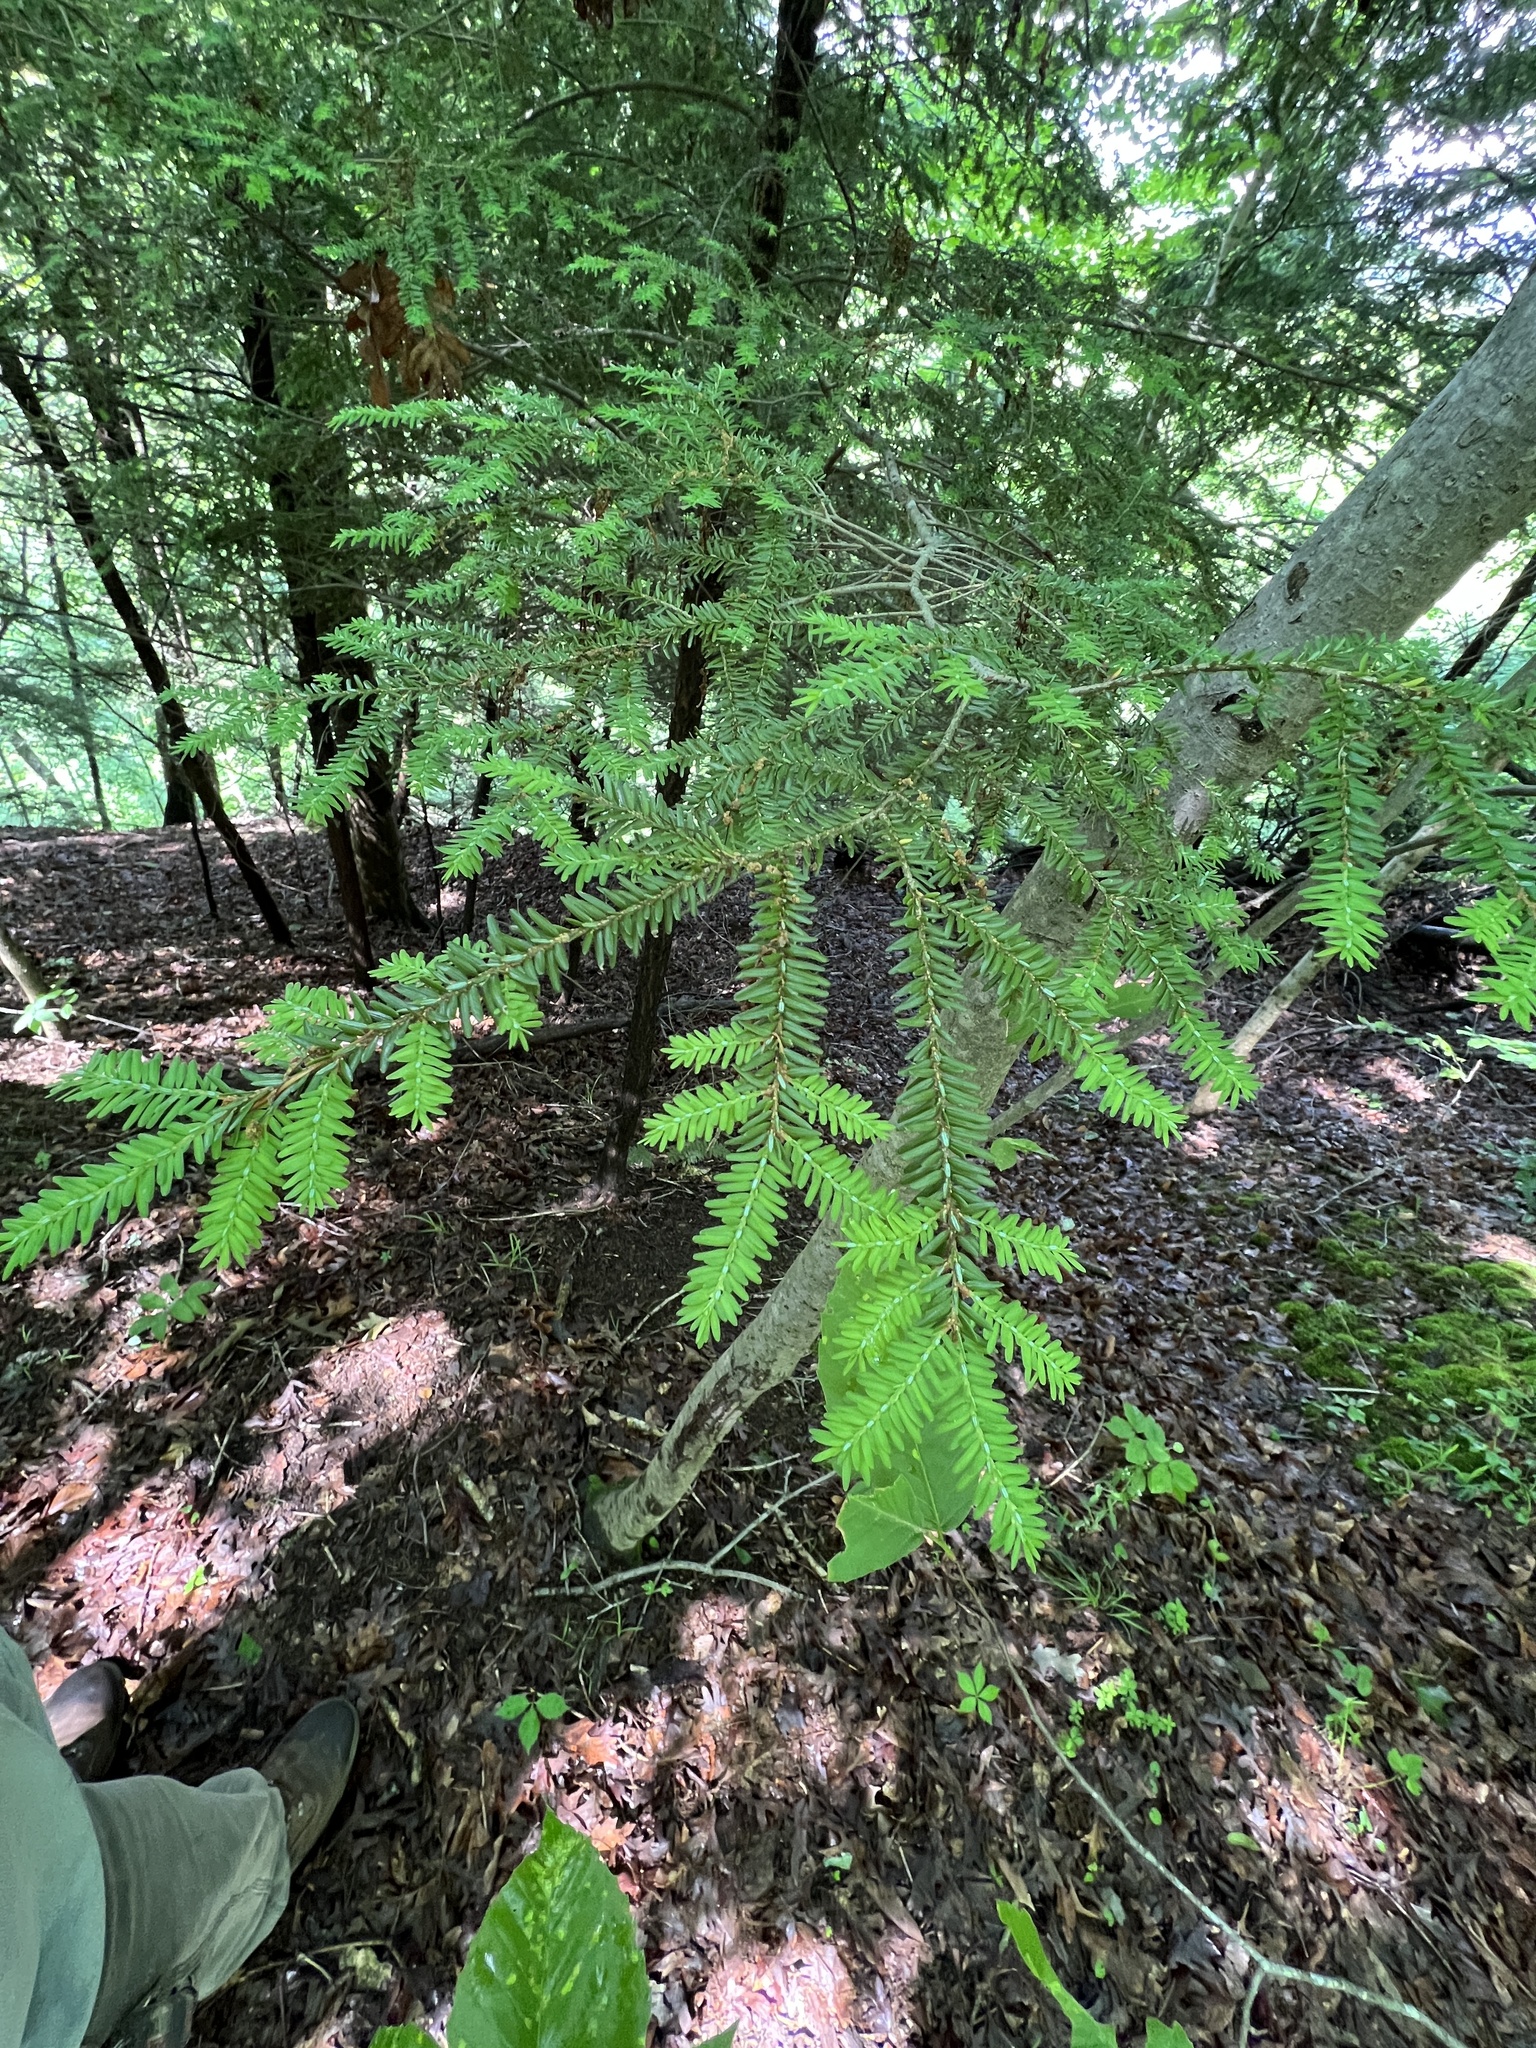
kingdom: Plantae
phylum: Tracheophyta
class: Pinopsida
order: Pinales
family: Pinaceae
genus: Tsuga
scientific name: Tsuga canadensis
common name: Eastern hemlock
